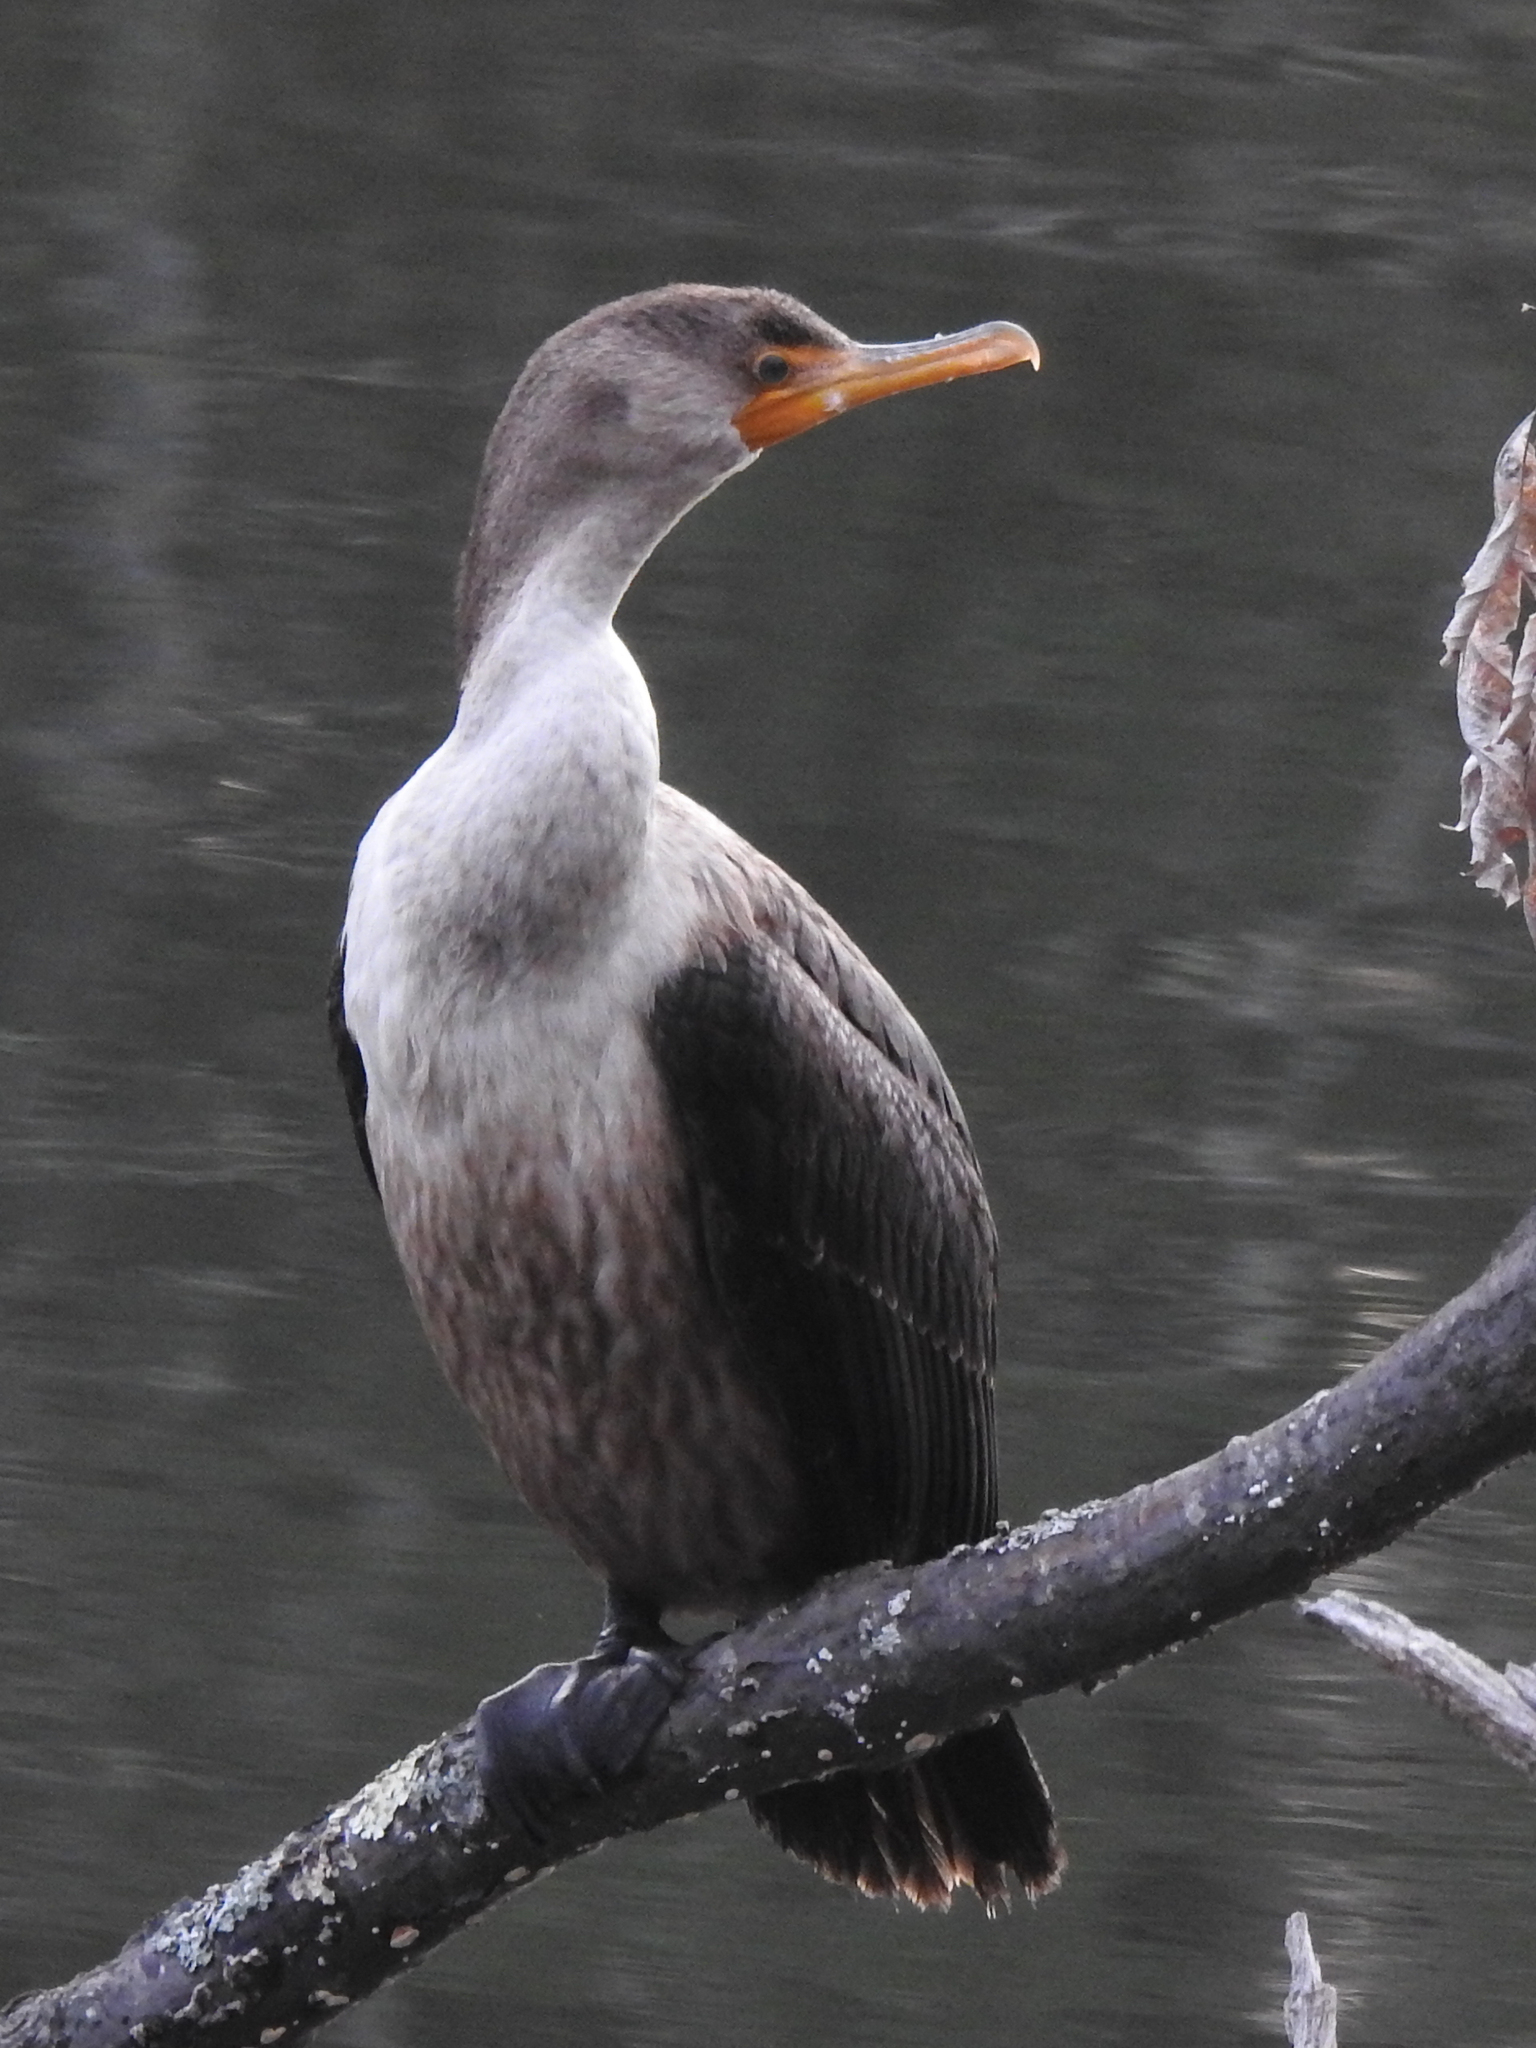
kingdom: Animalia
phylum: Chordata
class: Aves
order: Suliformes
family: Phalacrocoracidae
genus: Phalacrocorax
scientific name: Phalacrocorax auritus
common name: Double-crested cormorant
